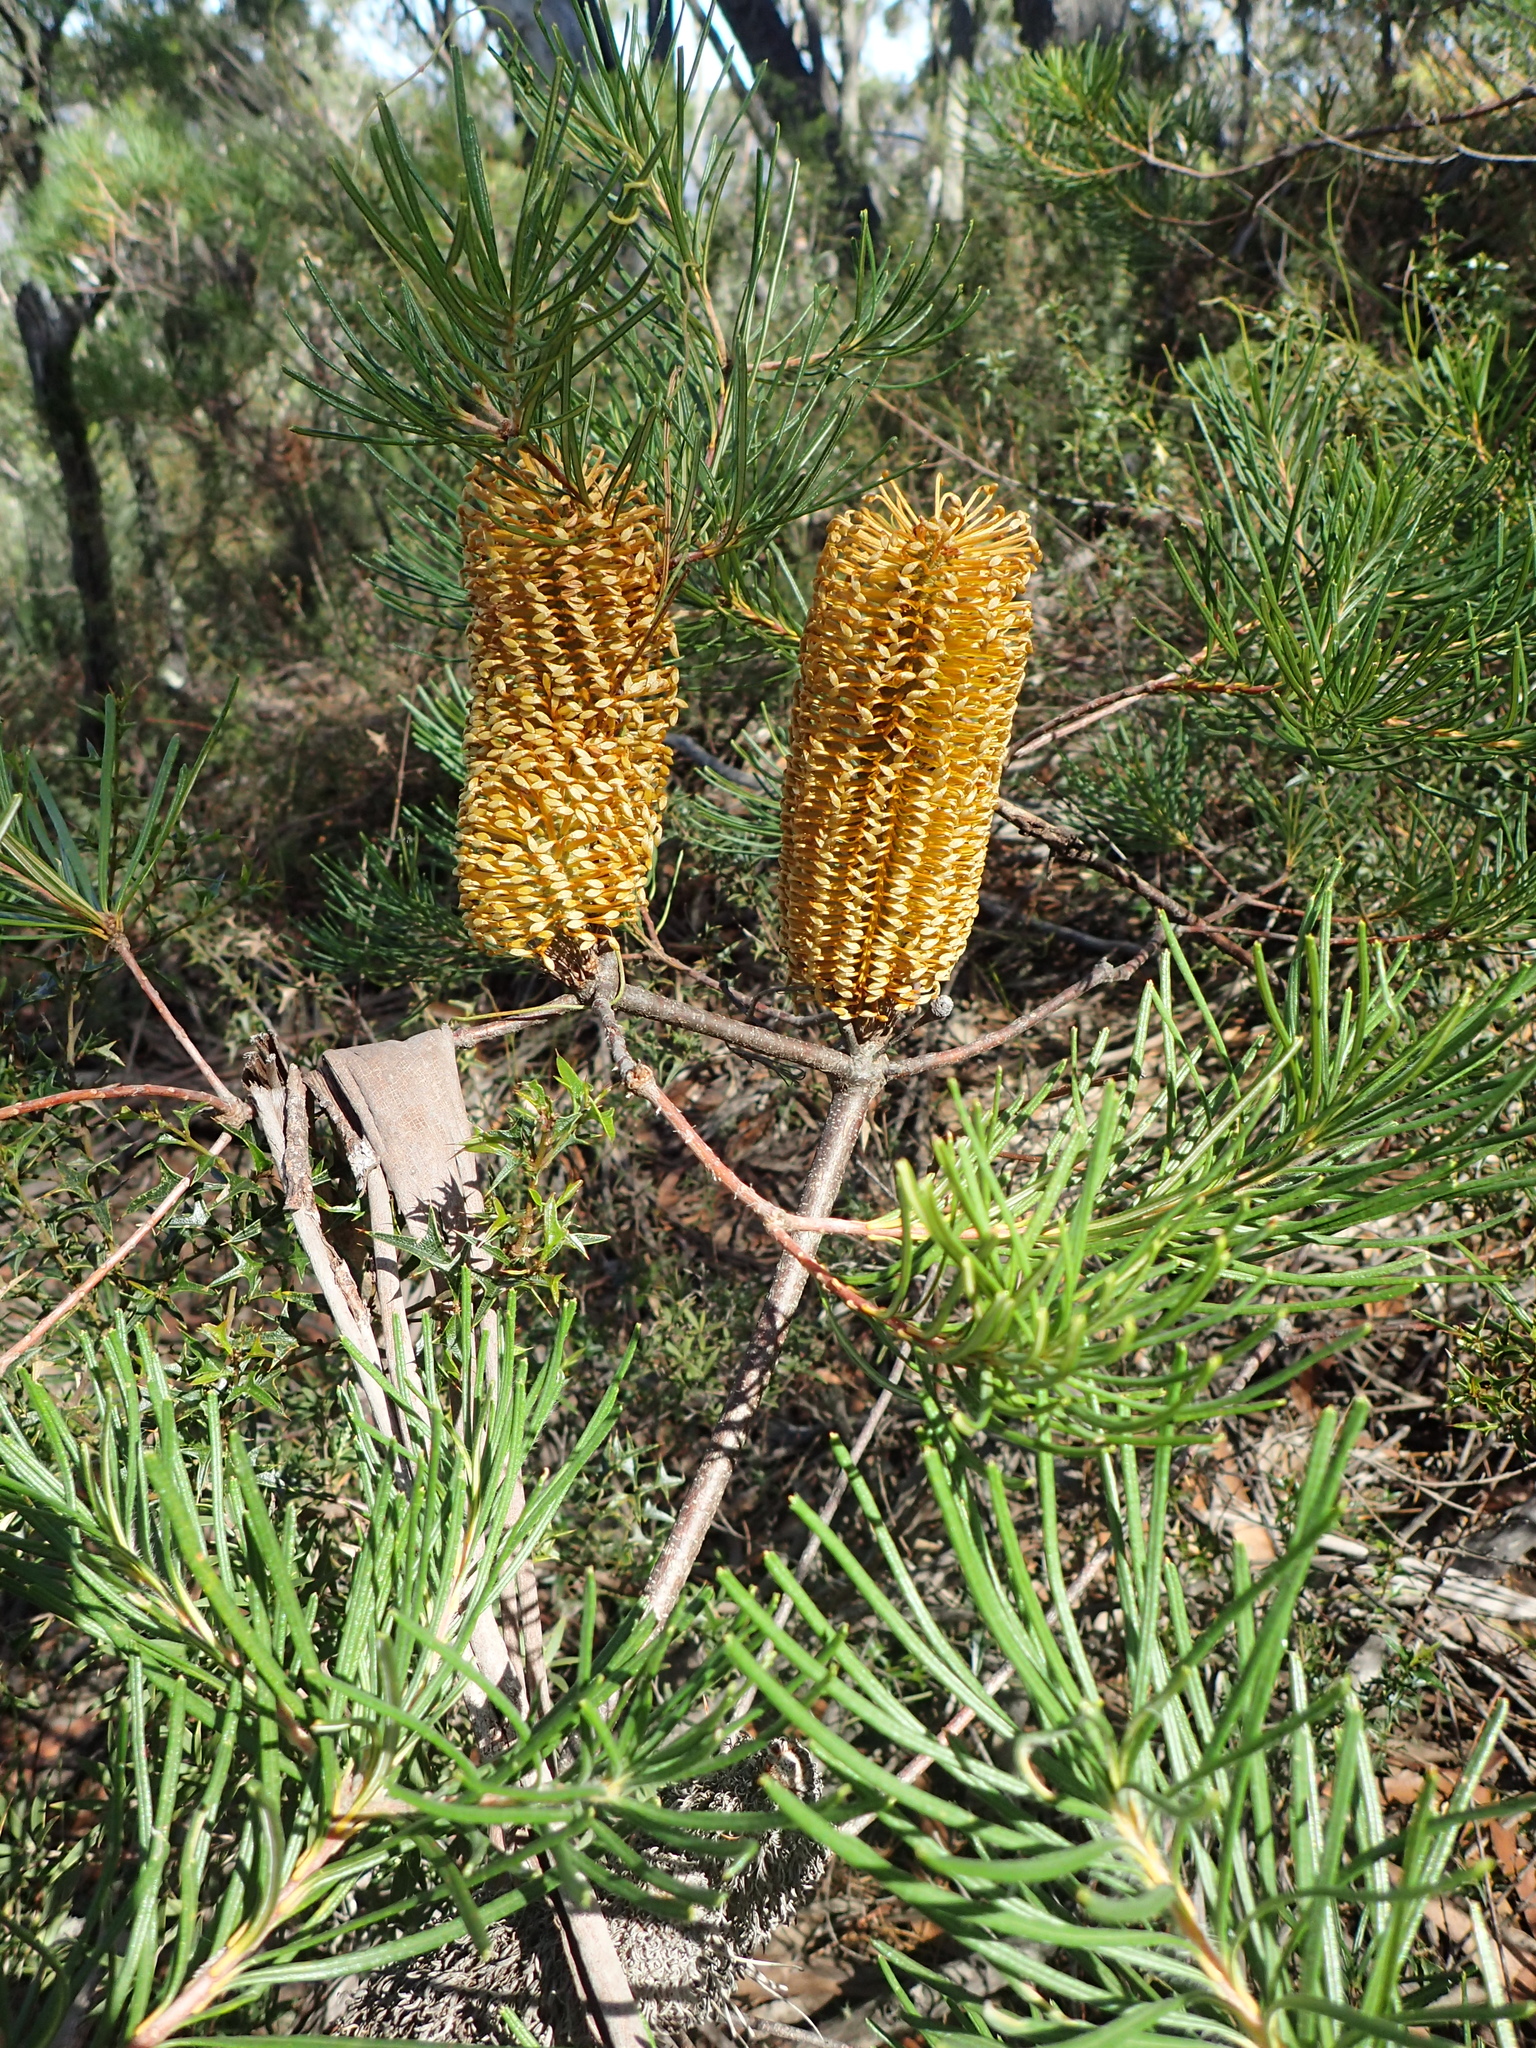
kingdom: Plantae
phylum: Tracheophyta
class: Magnoliopsida
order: Proteales
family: Proteaceae
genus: Banksia
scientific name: Banksia spinulosa
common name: Hairpin banksia
